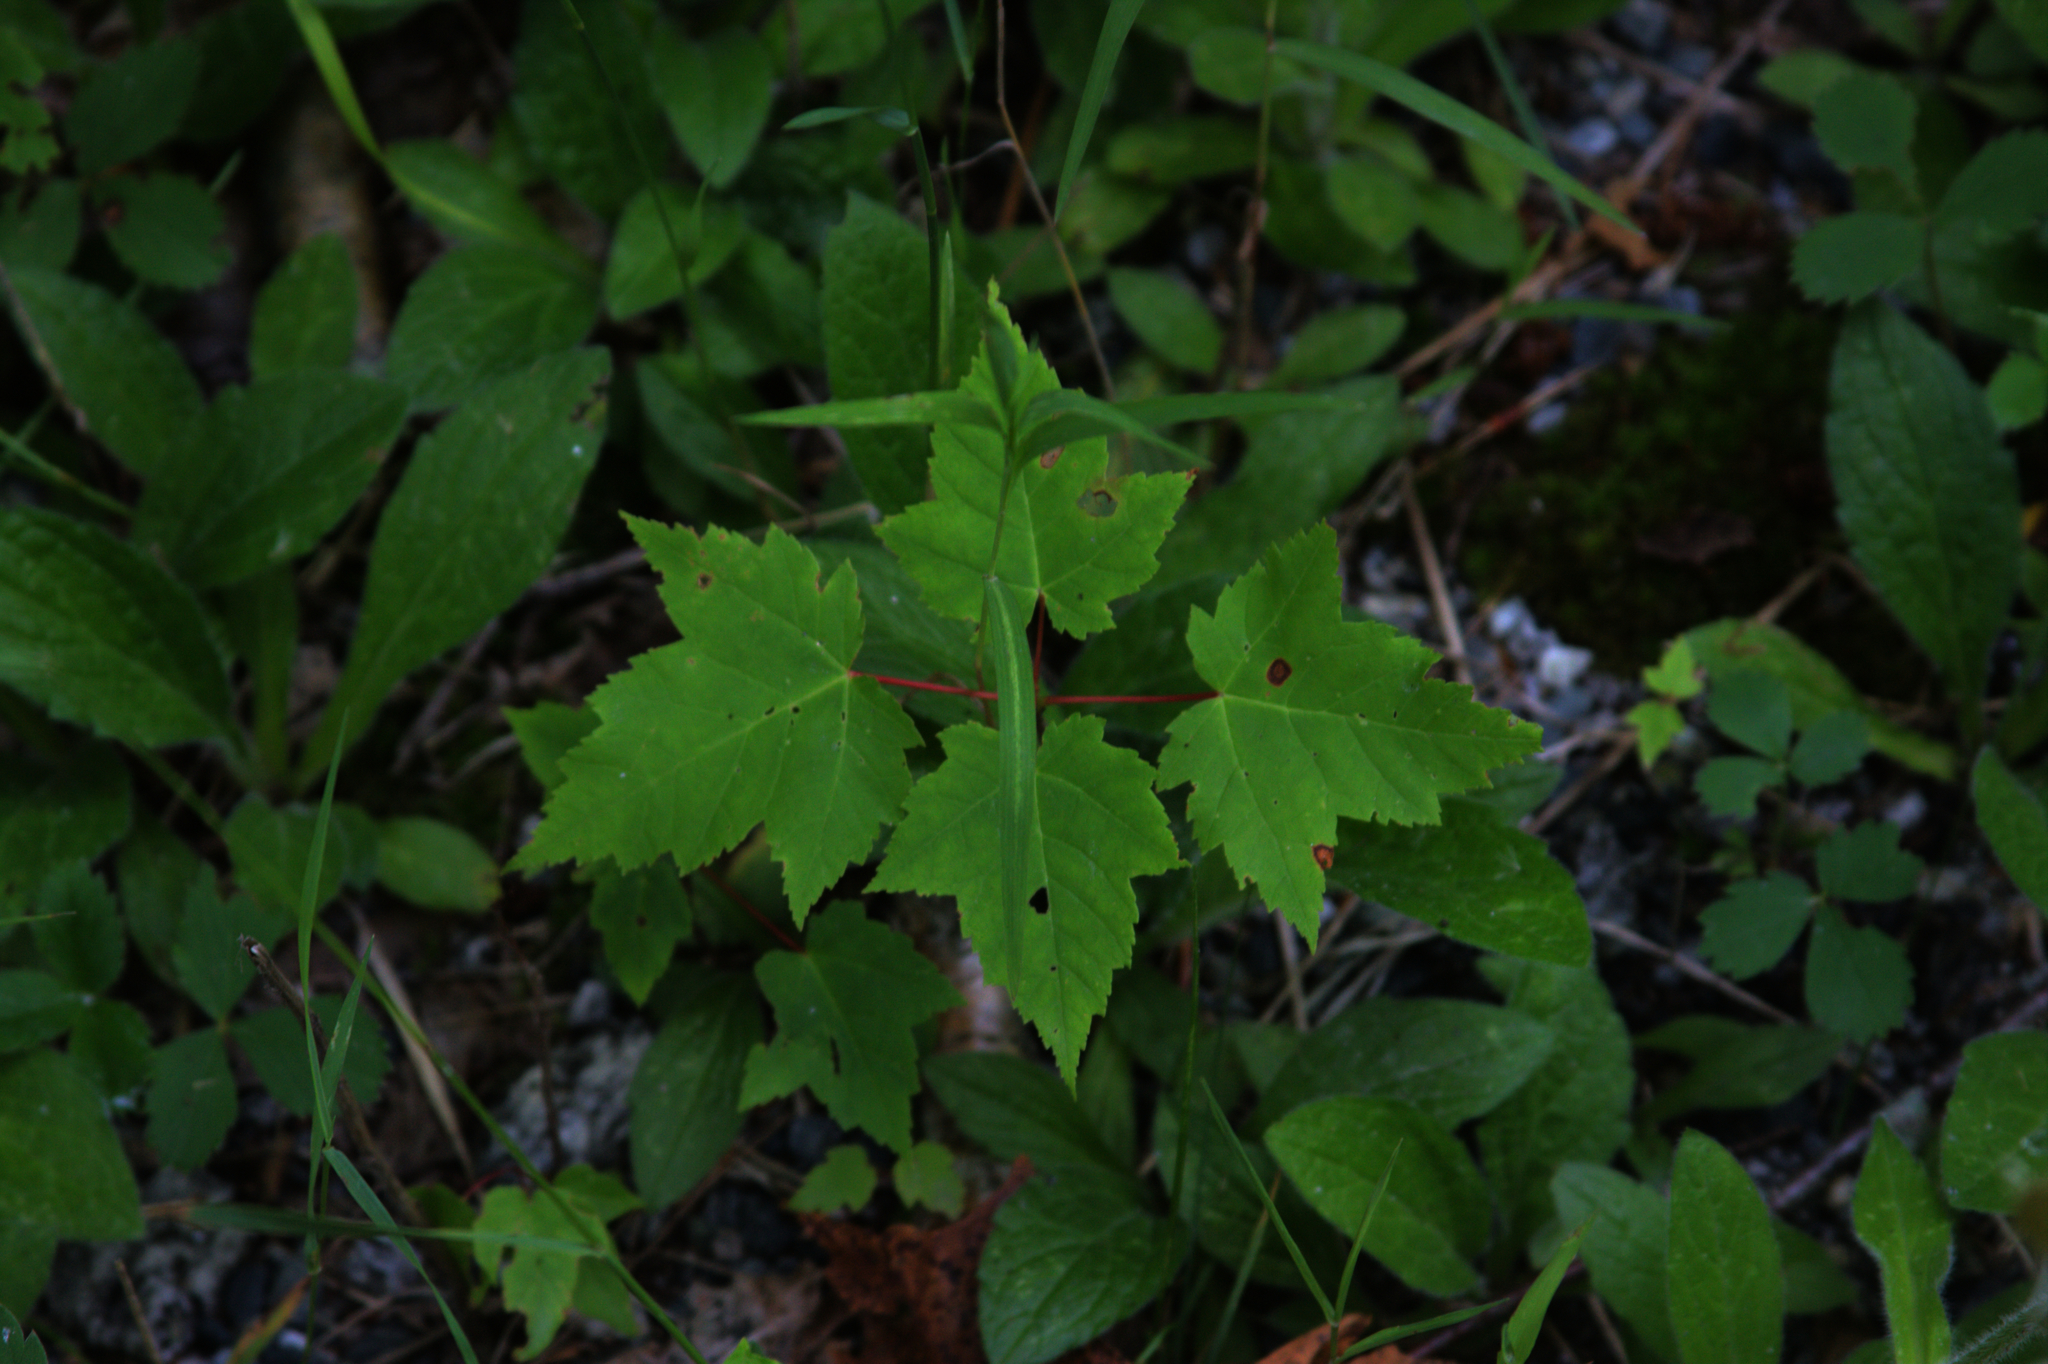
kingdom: Plantae
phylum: Tracheophyta
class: Magnoliopsida
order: Sapindales
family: Sapindaceae
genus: Acer
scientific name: Acer rubrum
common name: Red maple
